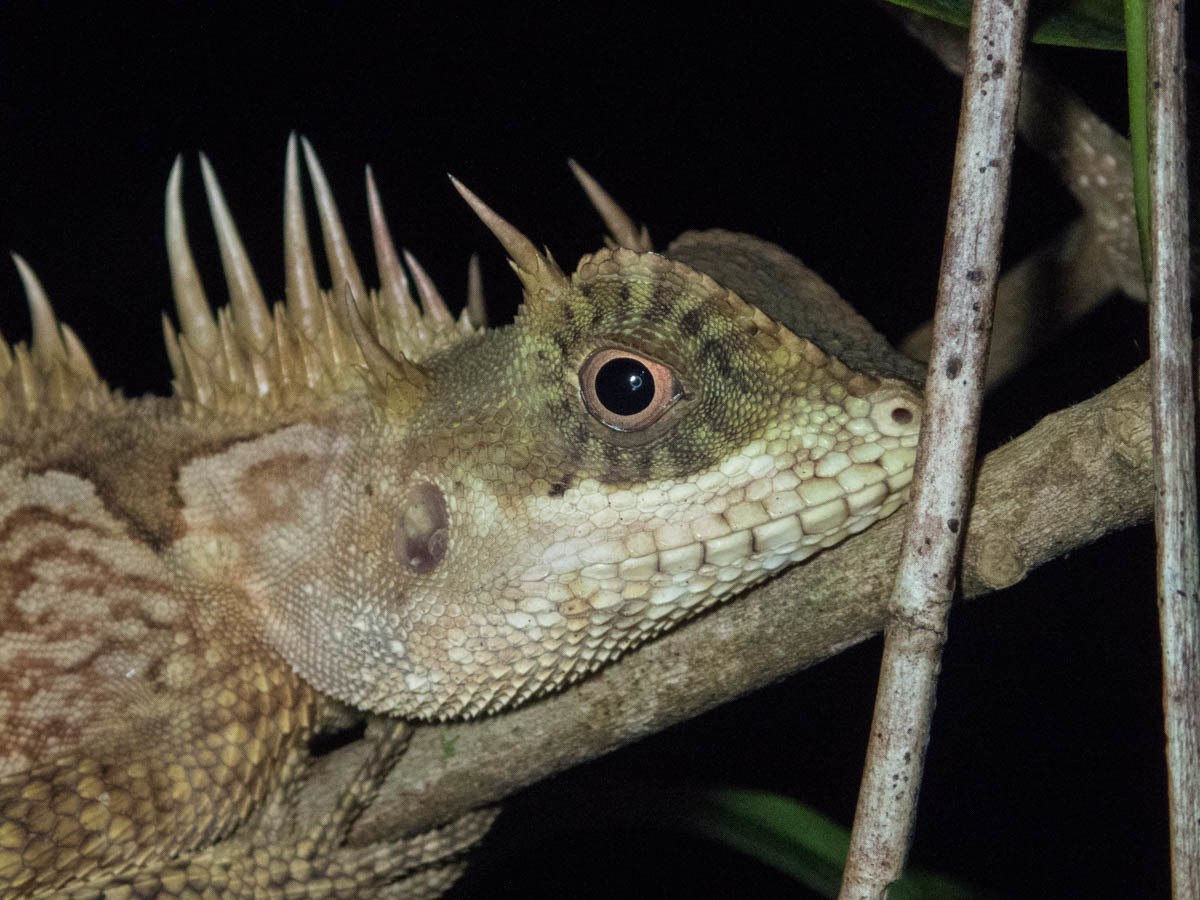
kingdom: Animalia
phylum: Chordata
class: Squamata
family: Agamidae
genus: Acanthosaura
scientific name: Acanthosaura cardamomensis
